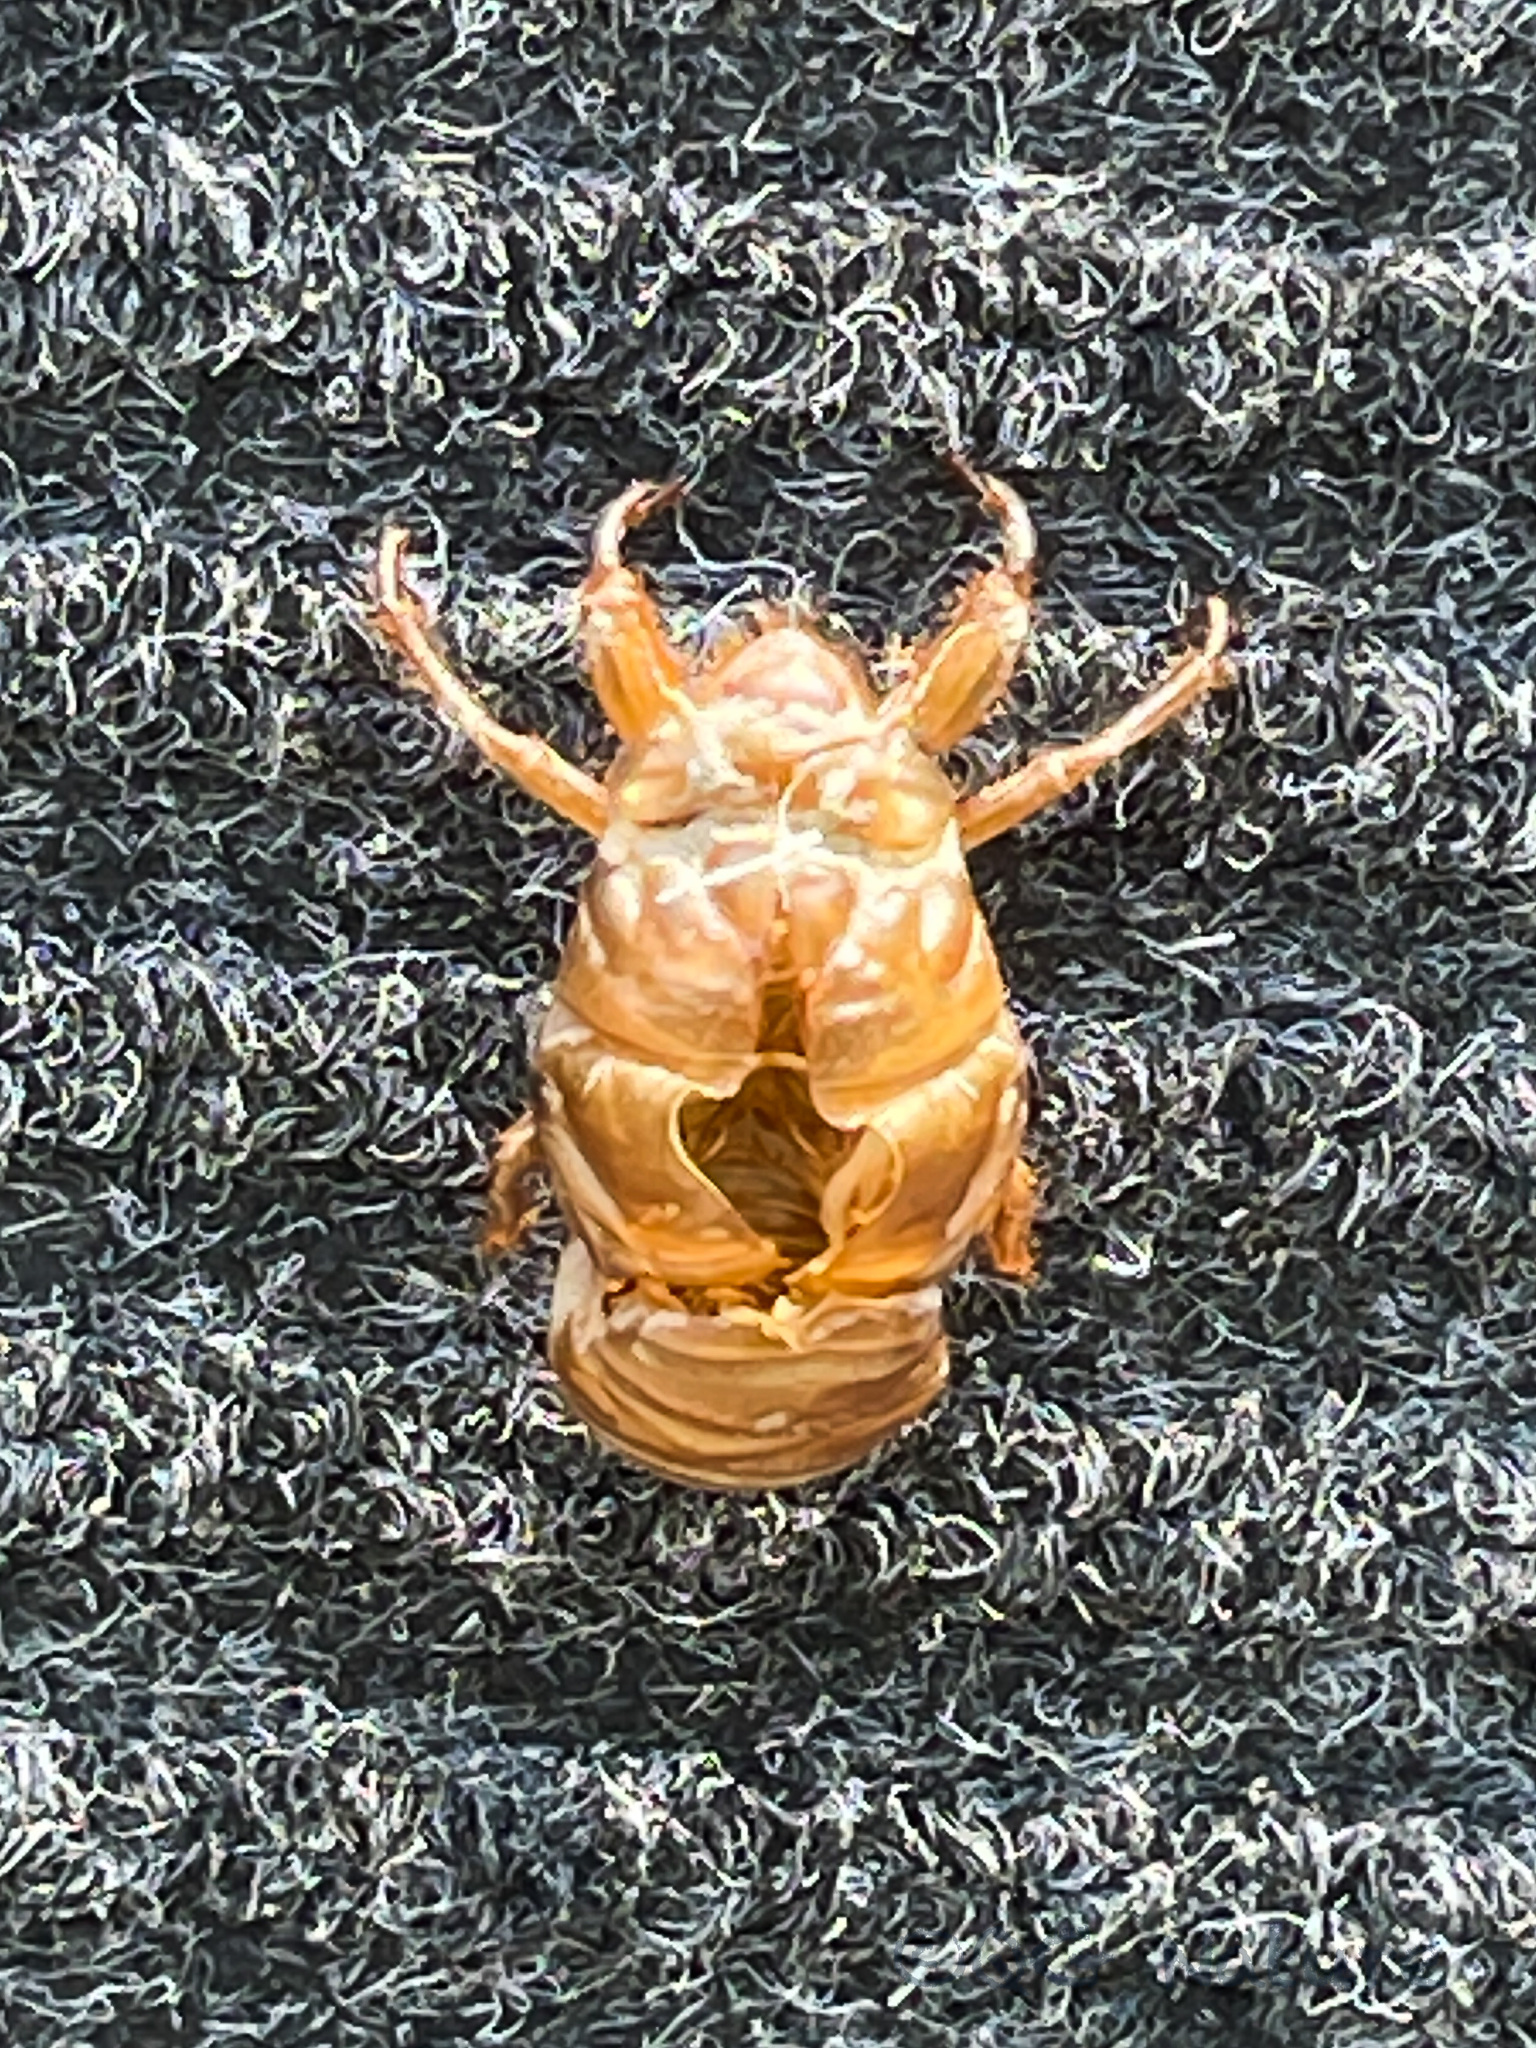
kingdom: Animalia
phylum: Arthropoda
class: Insecta
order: Hemiptera
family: Cicadidae
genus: Cryptotympana
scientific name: Cryptotympana atrata
